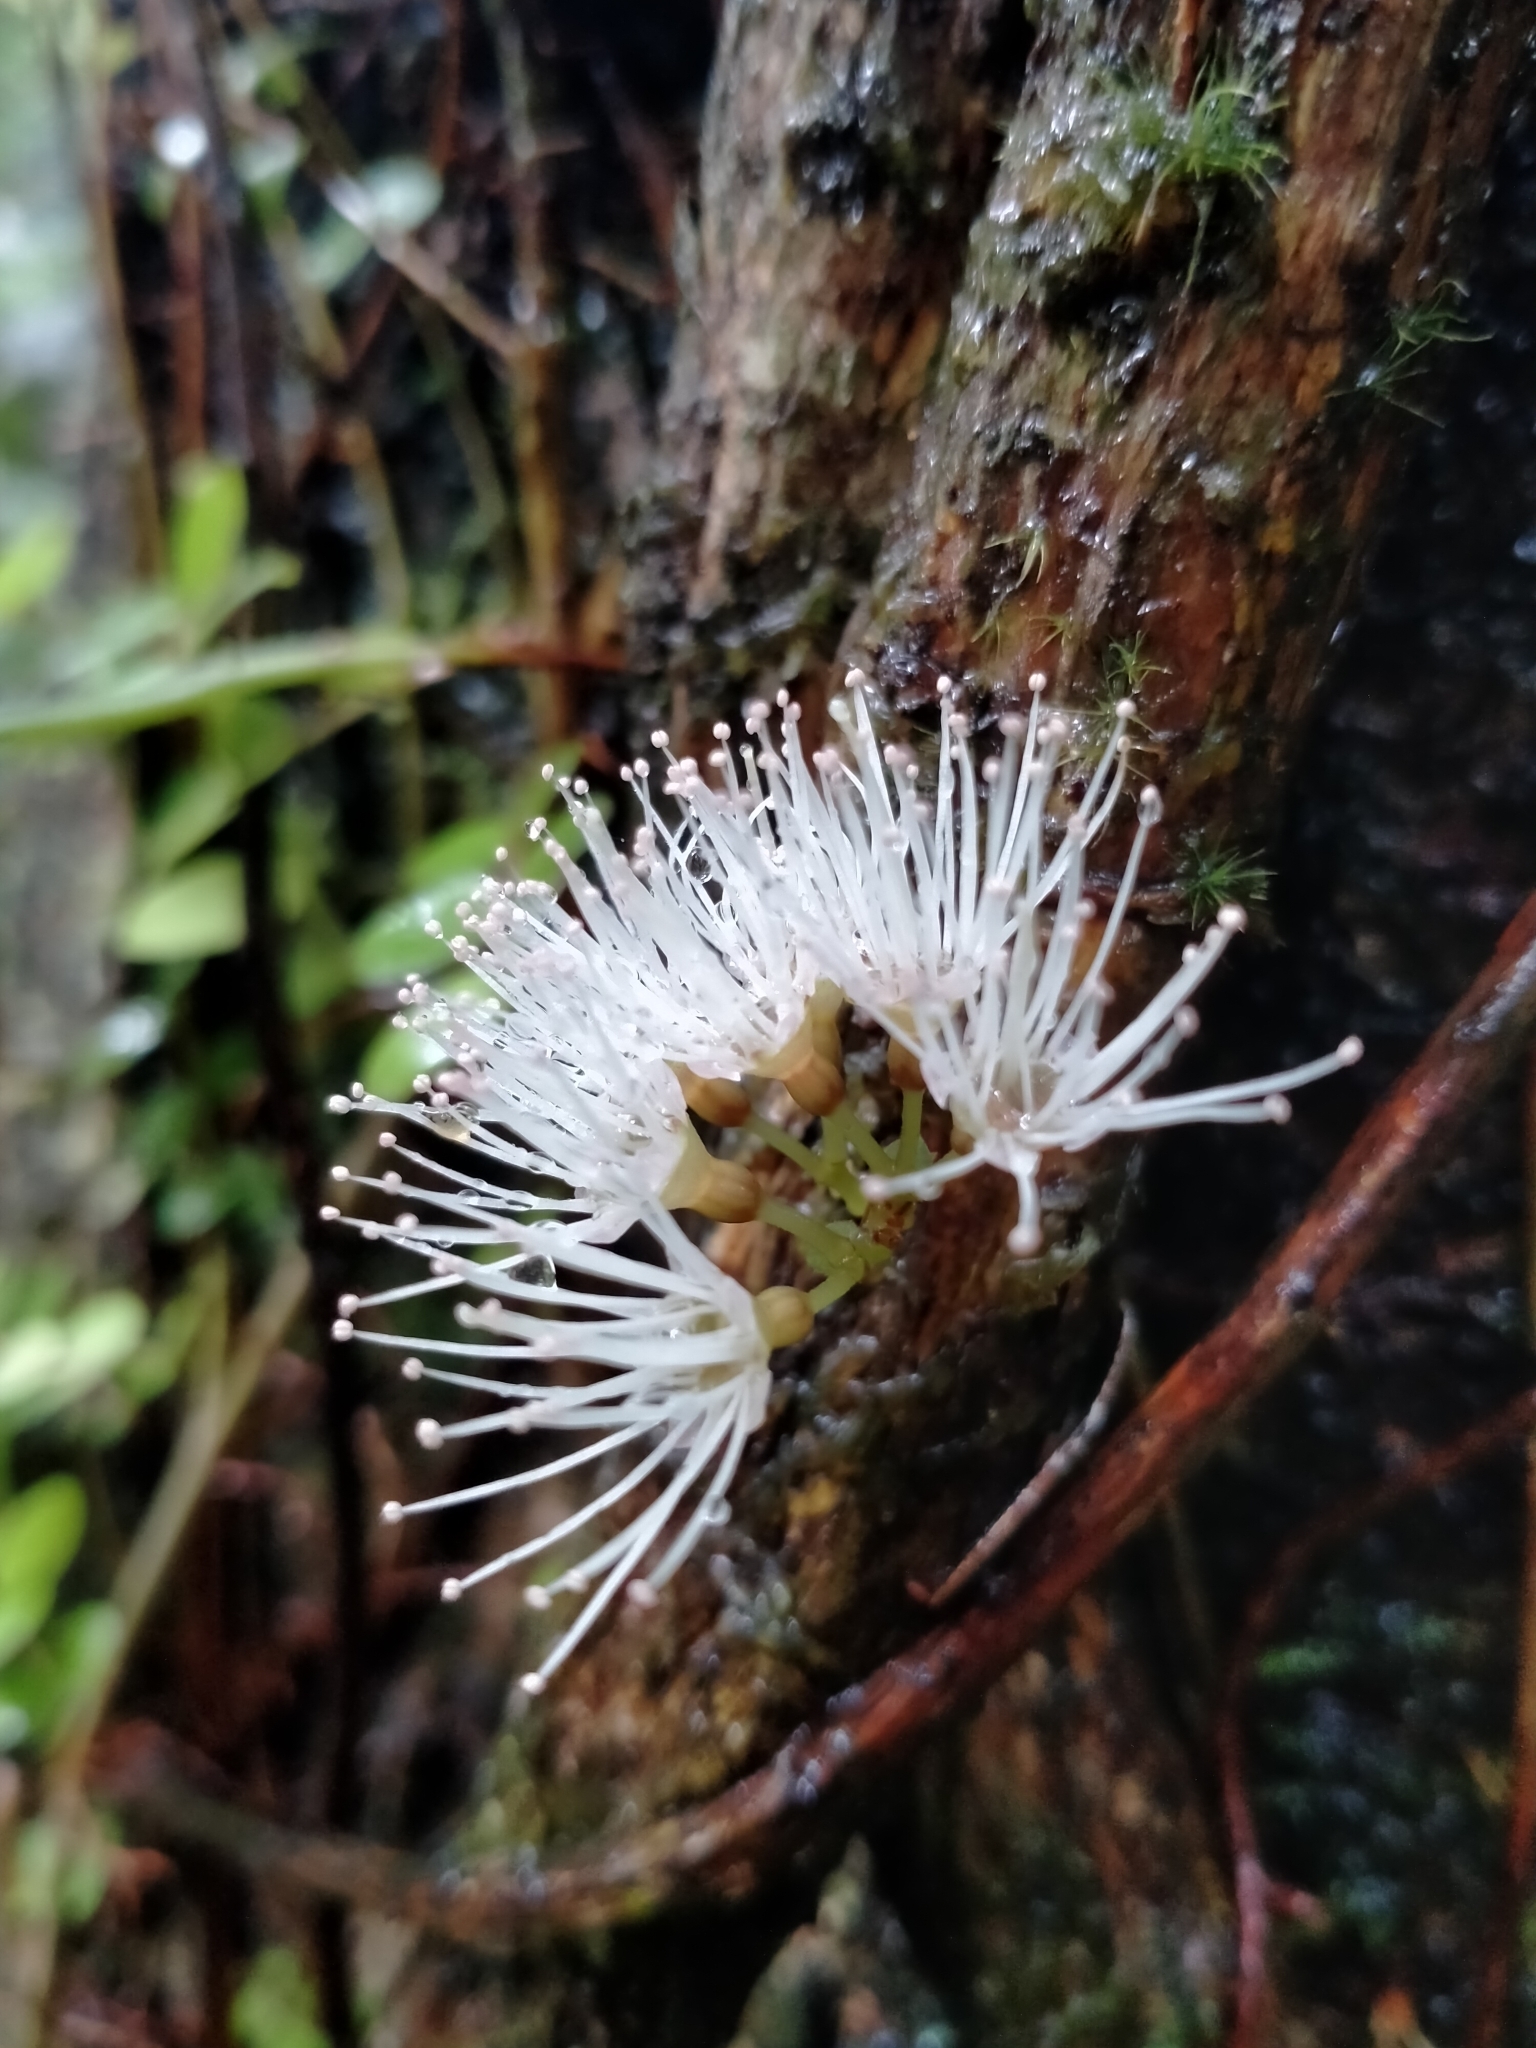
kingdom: Plantae
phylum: Tracheophyta
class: Magnoliopsida
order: Myrtales
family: Myrtaceae
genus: Metrosideros
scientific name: Metrosideros diffusa
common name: Small ratavine
